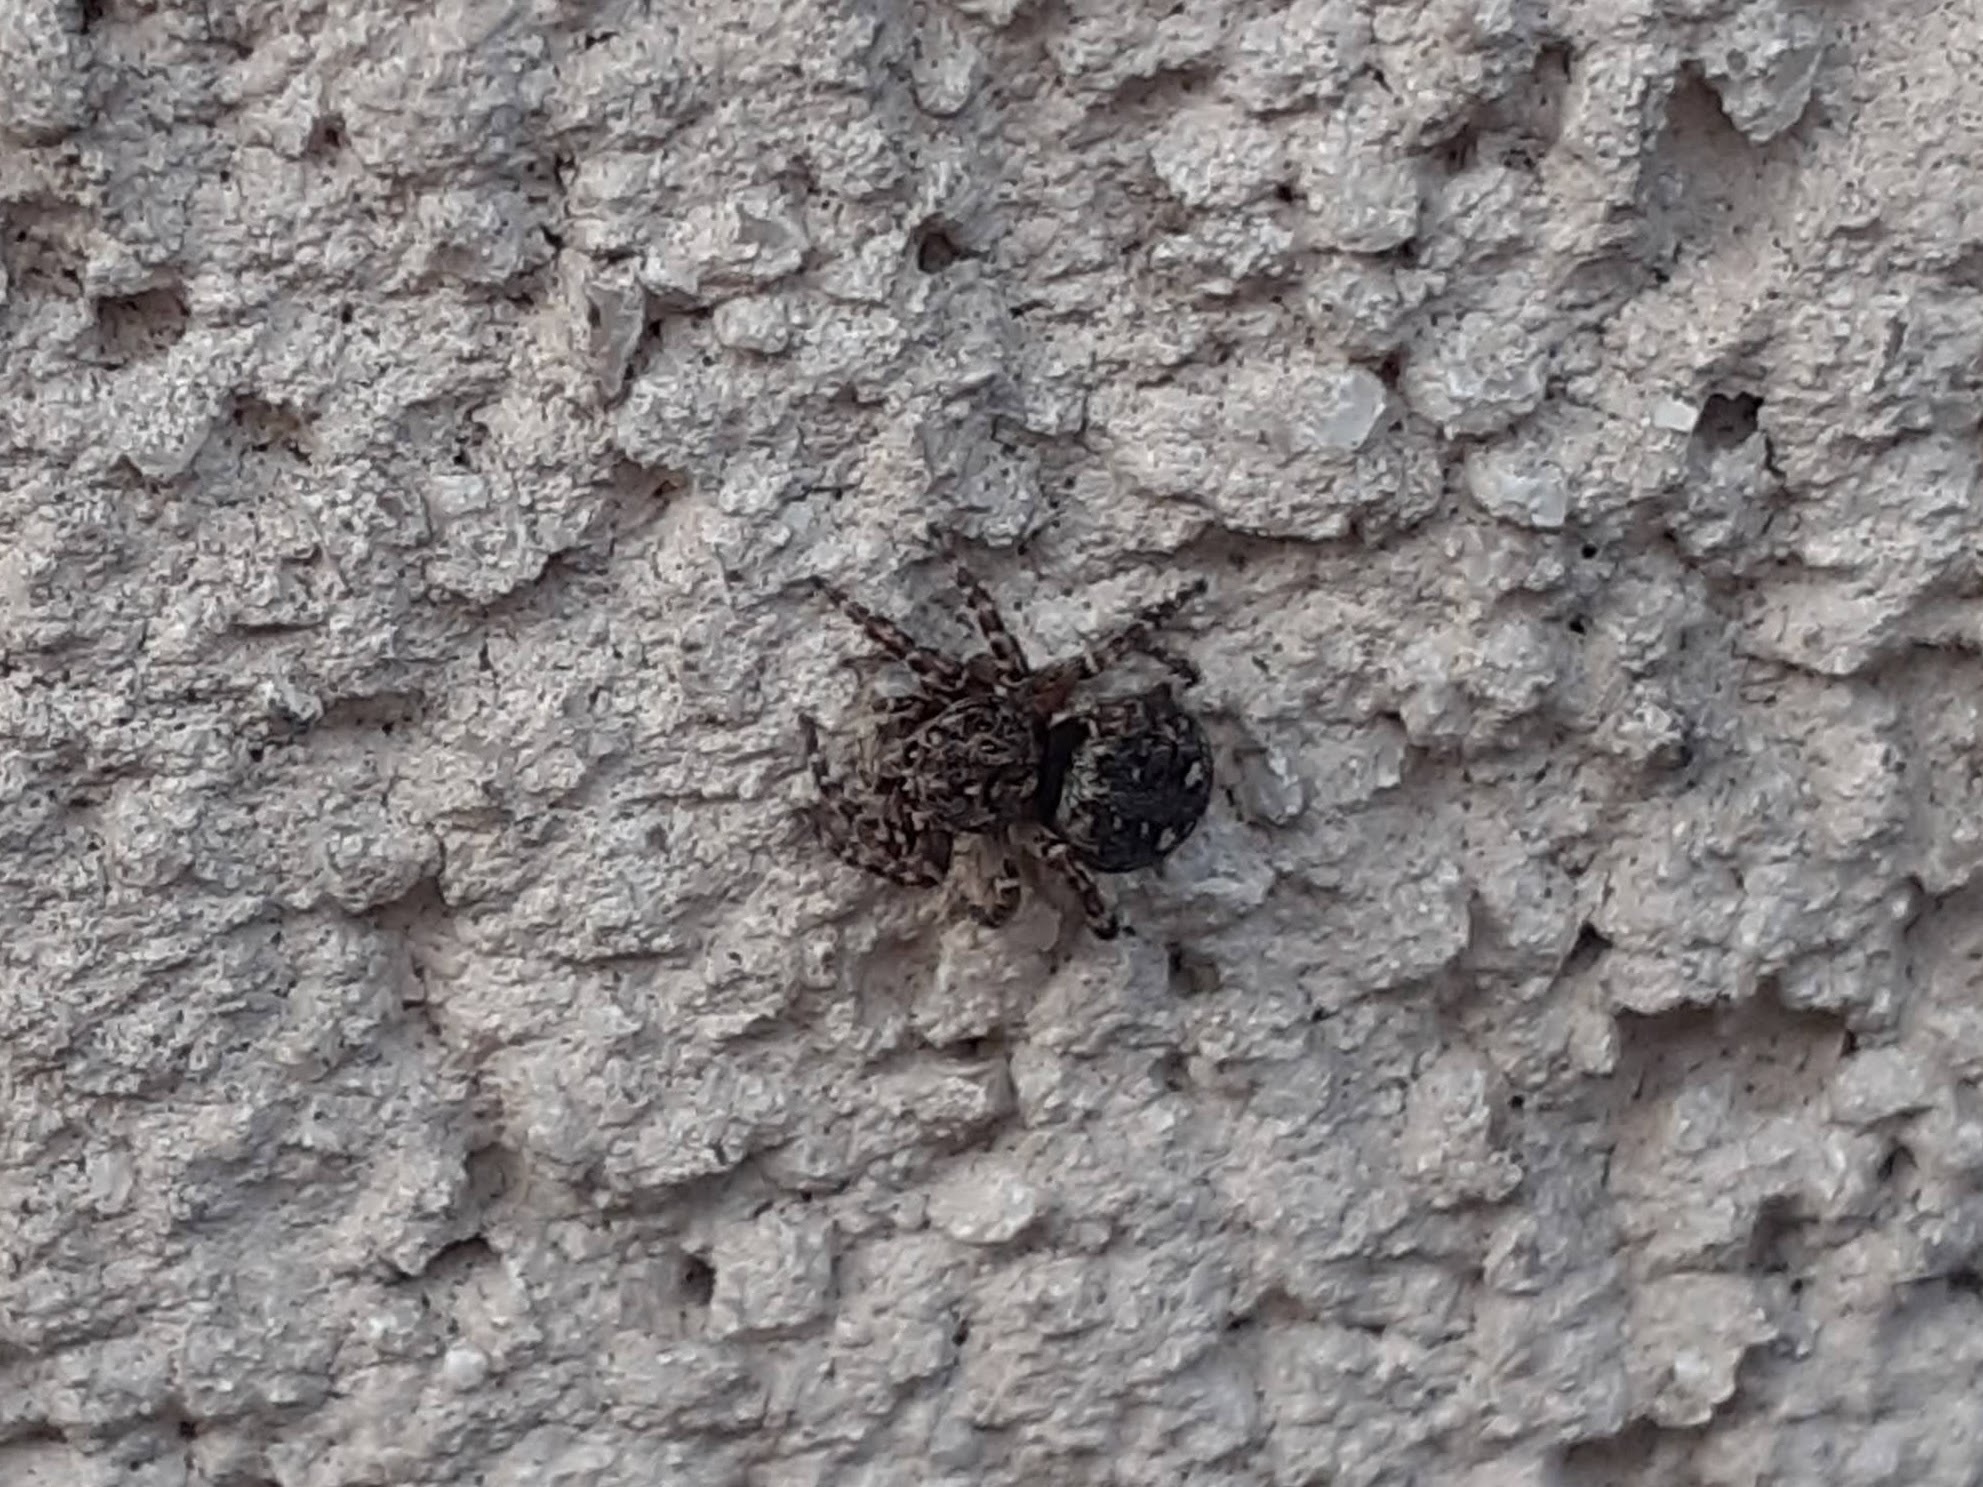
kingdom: Animalia
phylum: Arthropoda
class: Arachnida
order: Araneae
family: Salticidae
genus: Attulus
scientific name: Attulus pubescens
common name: Jumping spider
